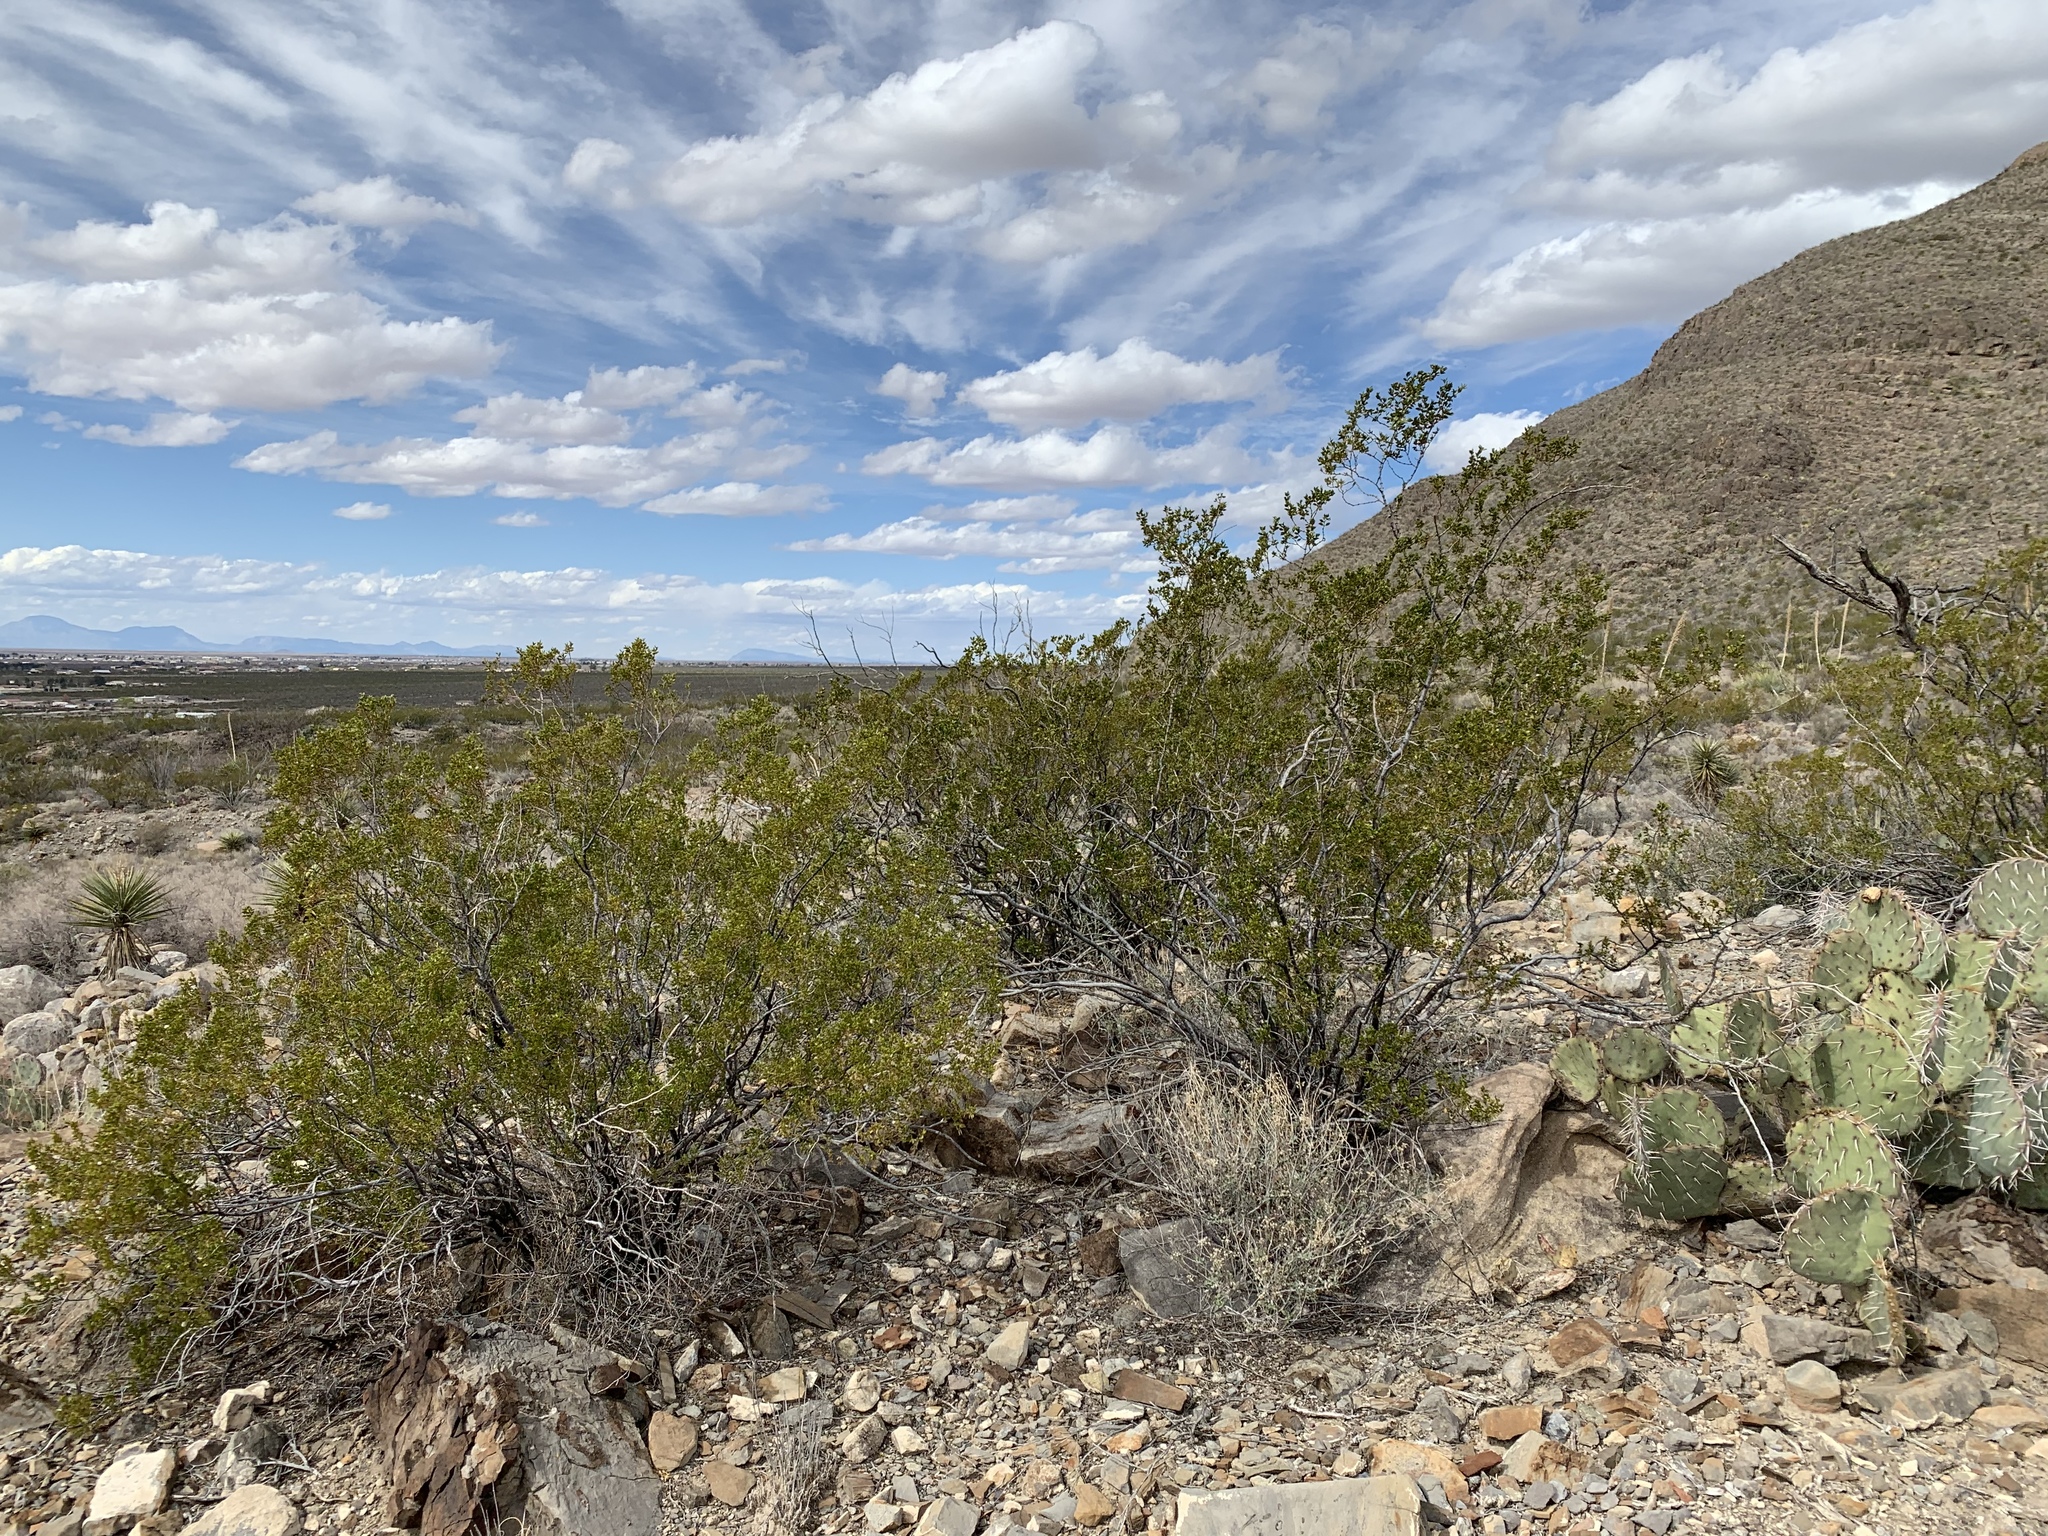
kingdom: Plantae
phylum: Tracheophyta
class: Magnoliopsida
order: Zygophyllales
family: Zygophyllaceae
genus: Larrea
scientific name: Larrea tridentata
